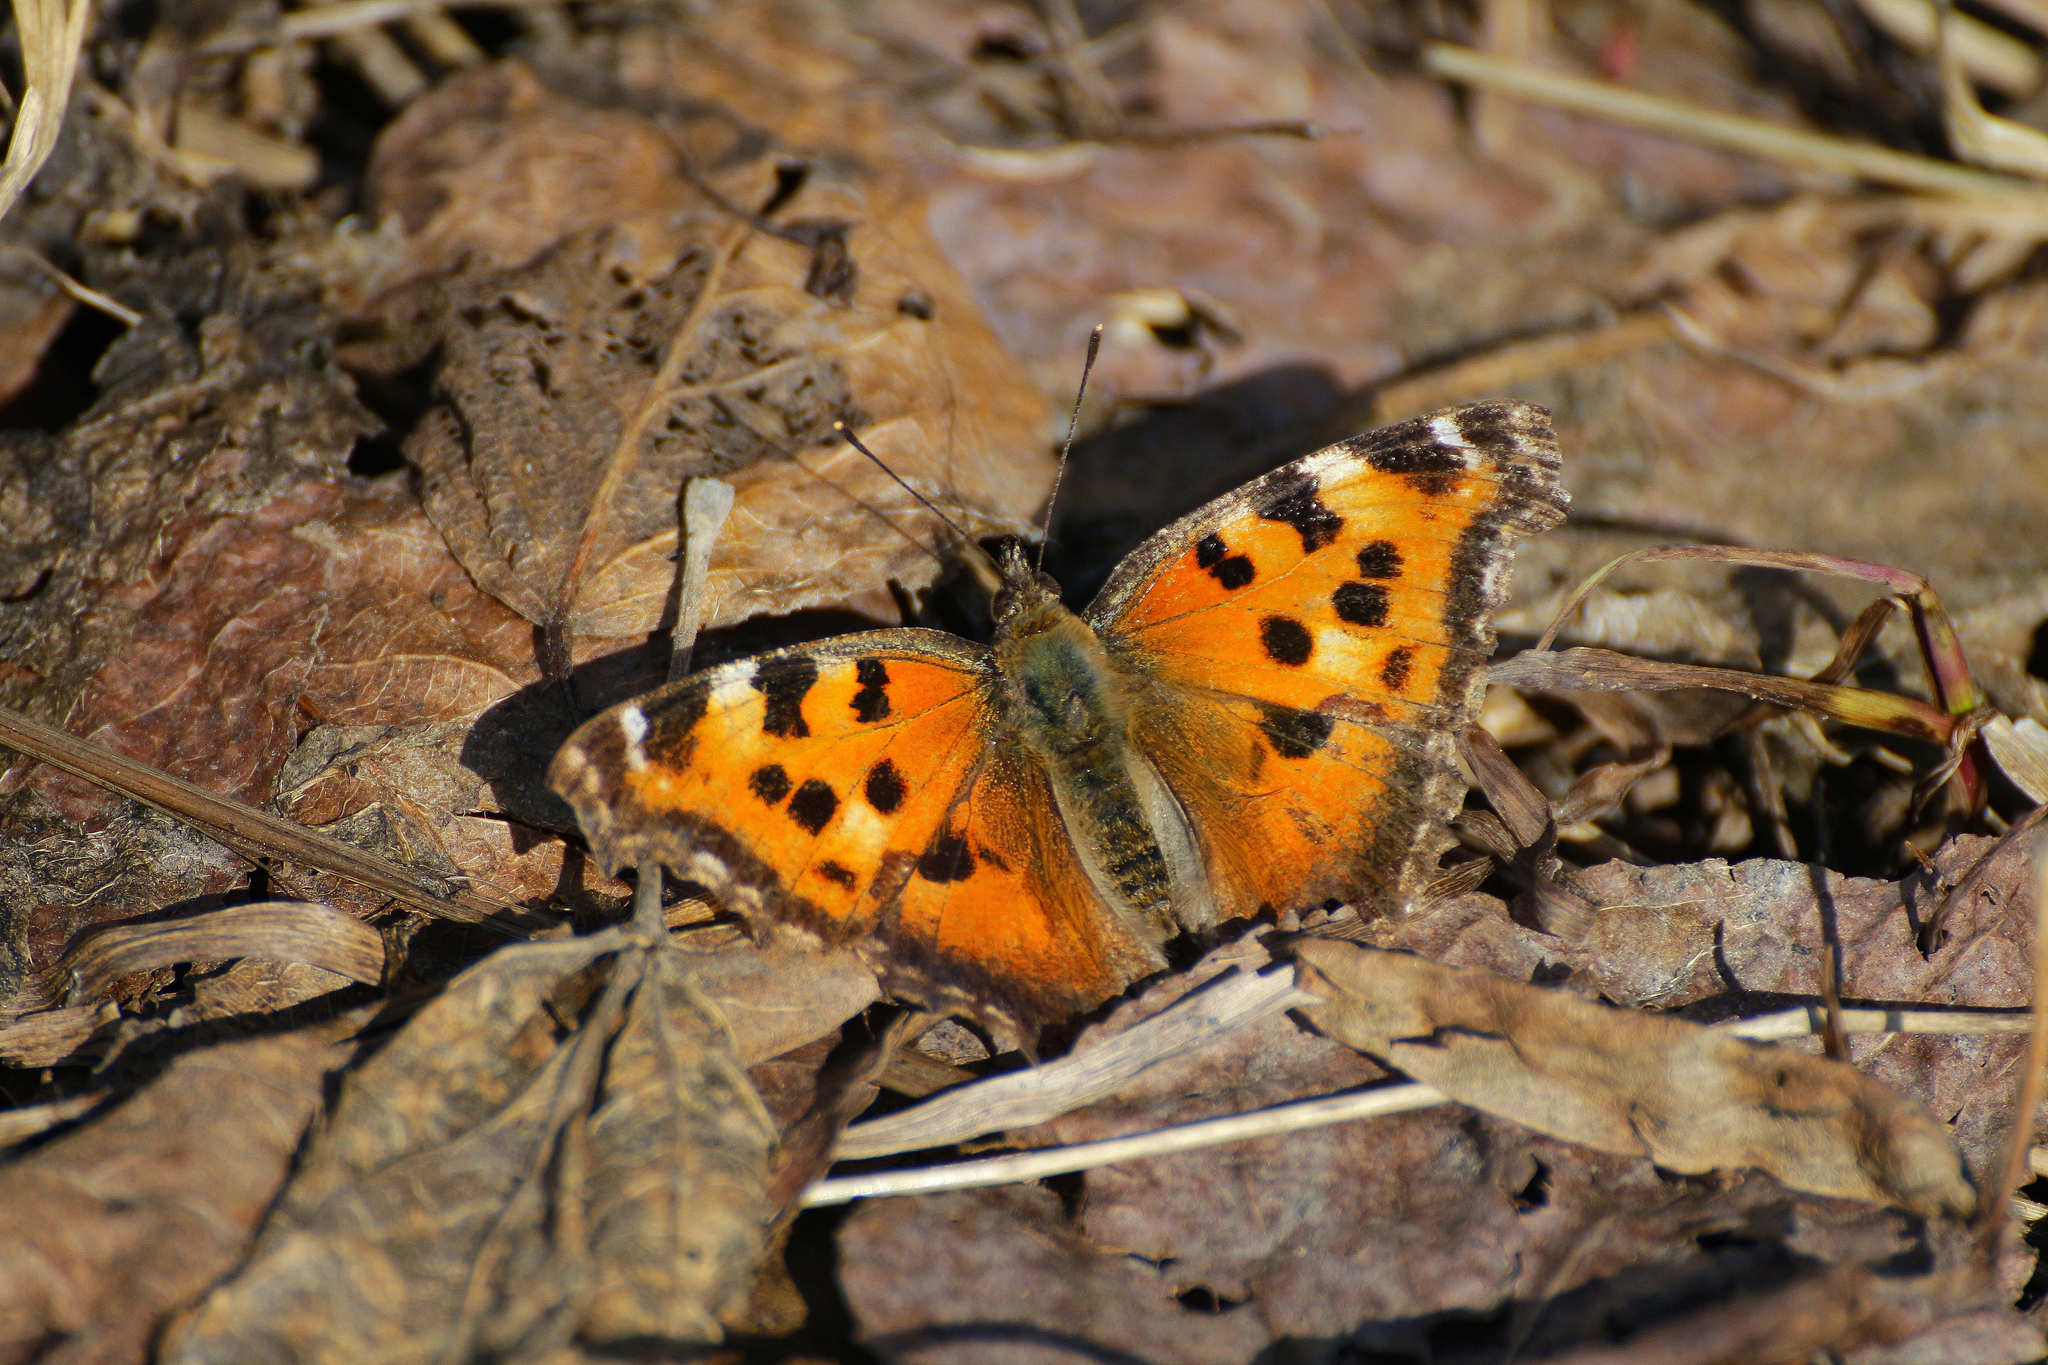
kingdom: Animalia
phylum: Arthropoda
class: Insecta
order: Lepidoptera
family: Nymphalidae
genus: Nymphalis
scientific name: Nymphalis xanthomelas
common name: Scarce tortoiseshell
